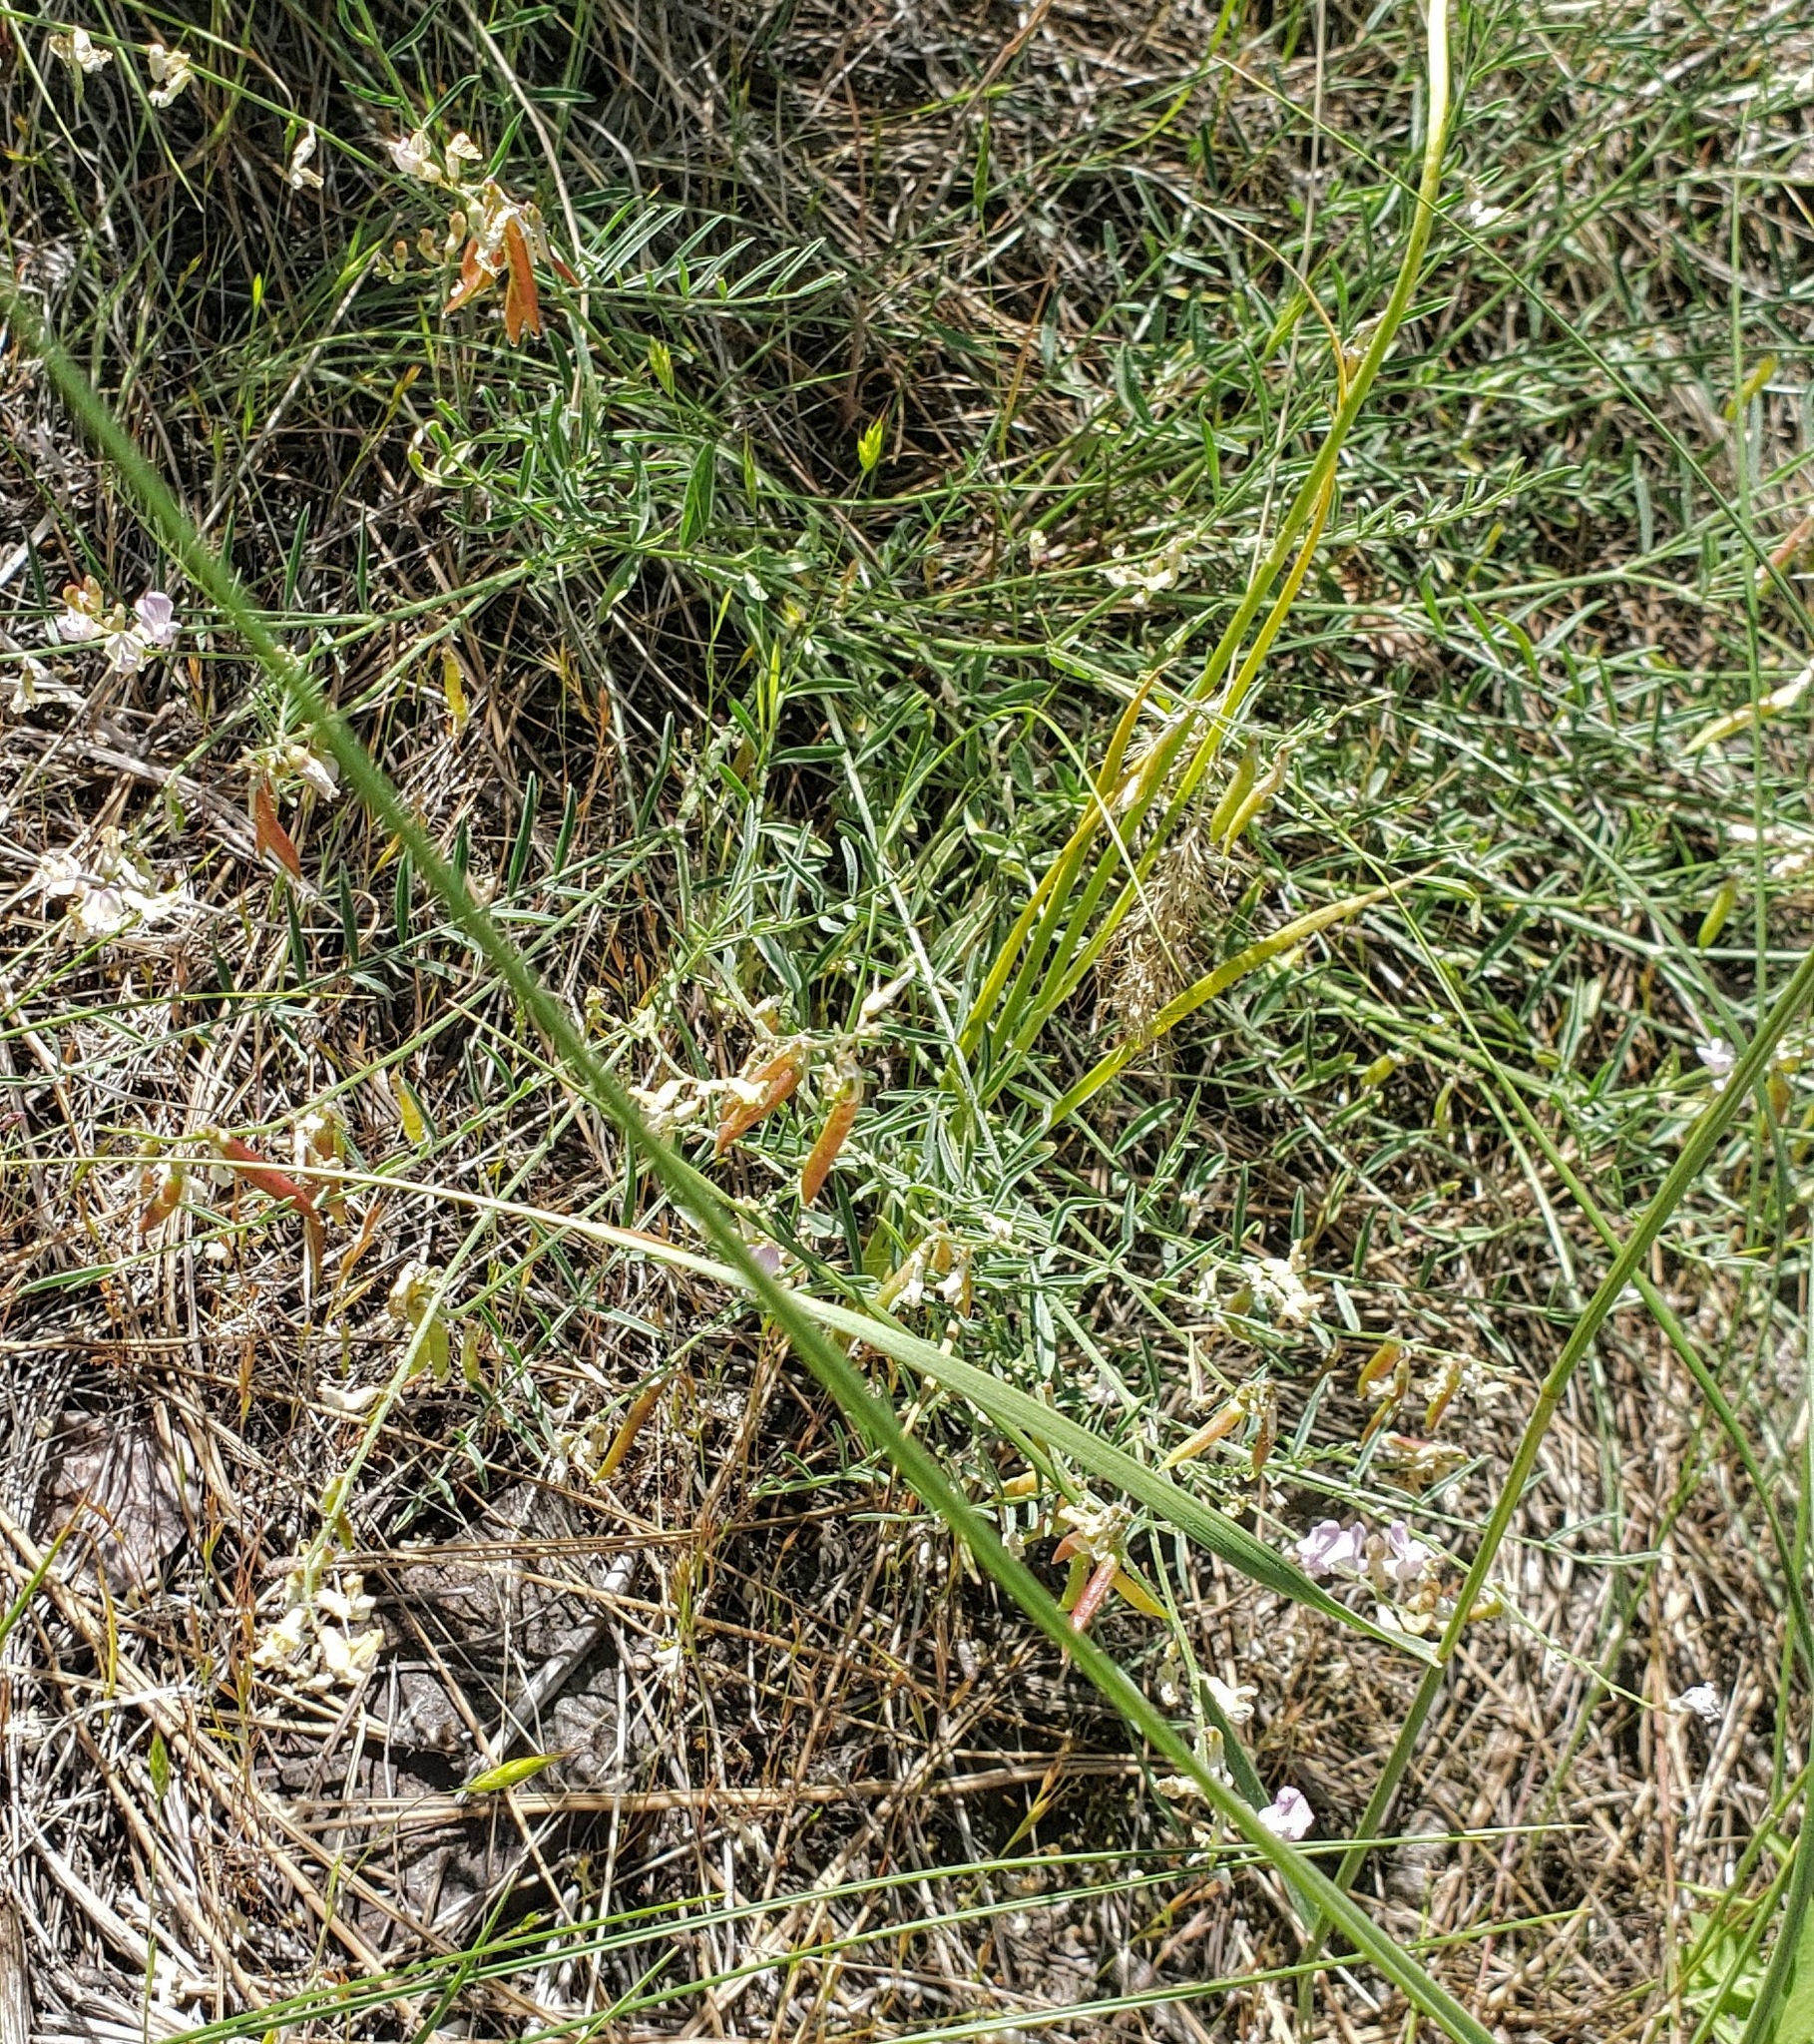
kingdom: Plantae
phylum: Tracheophyta
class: Magnoliopsida
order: Fabales
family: Fabaceae
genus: Astragalus
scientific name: Astragalus miser
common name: Timber milkvetch
